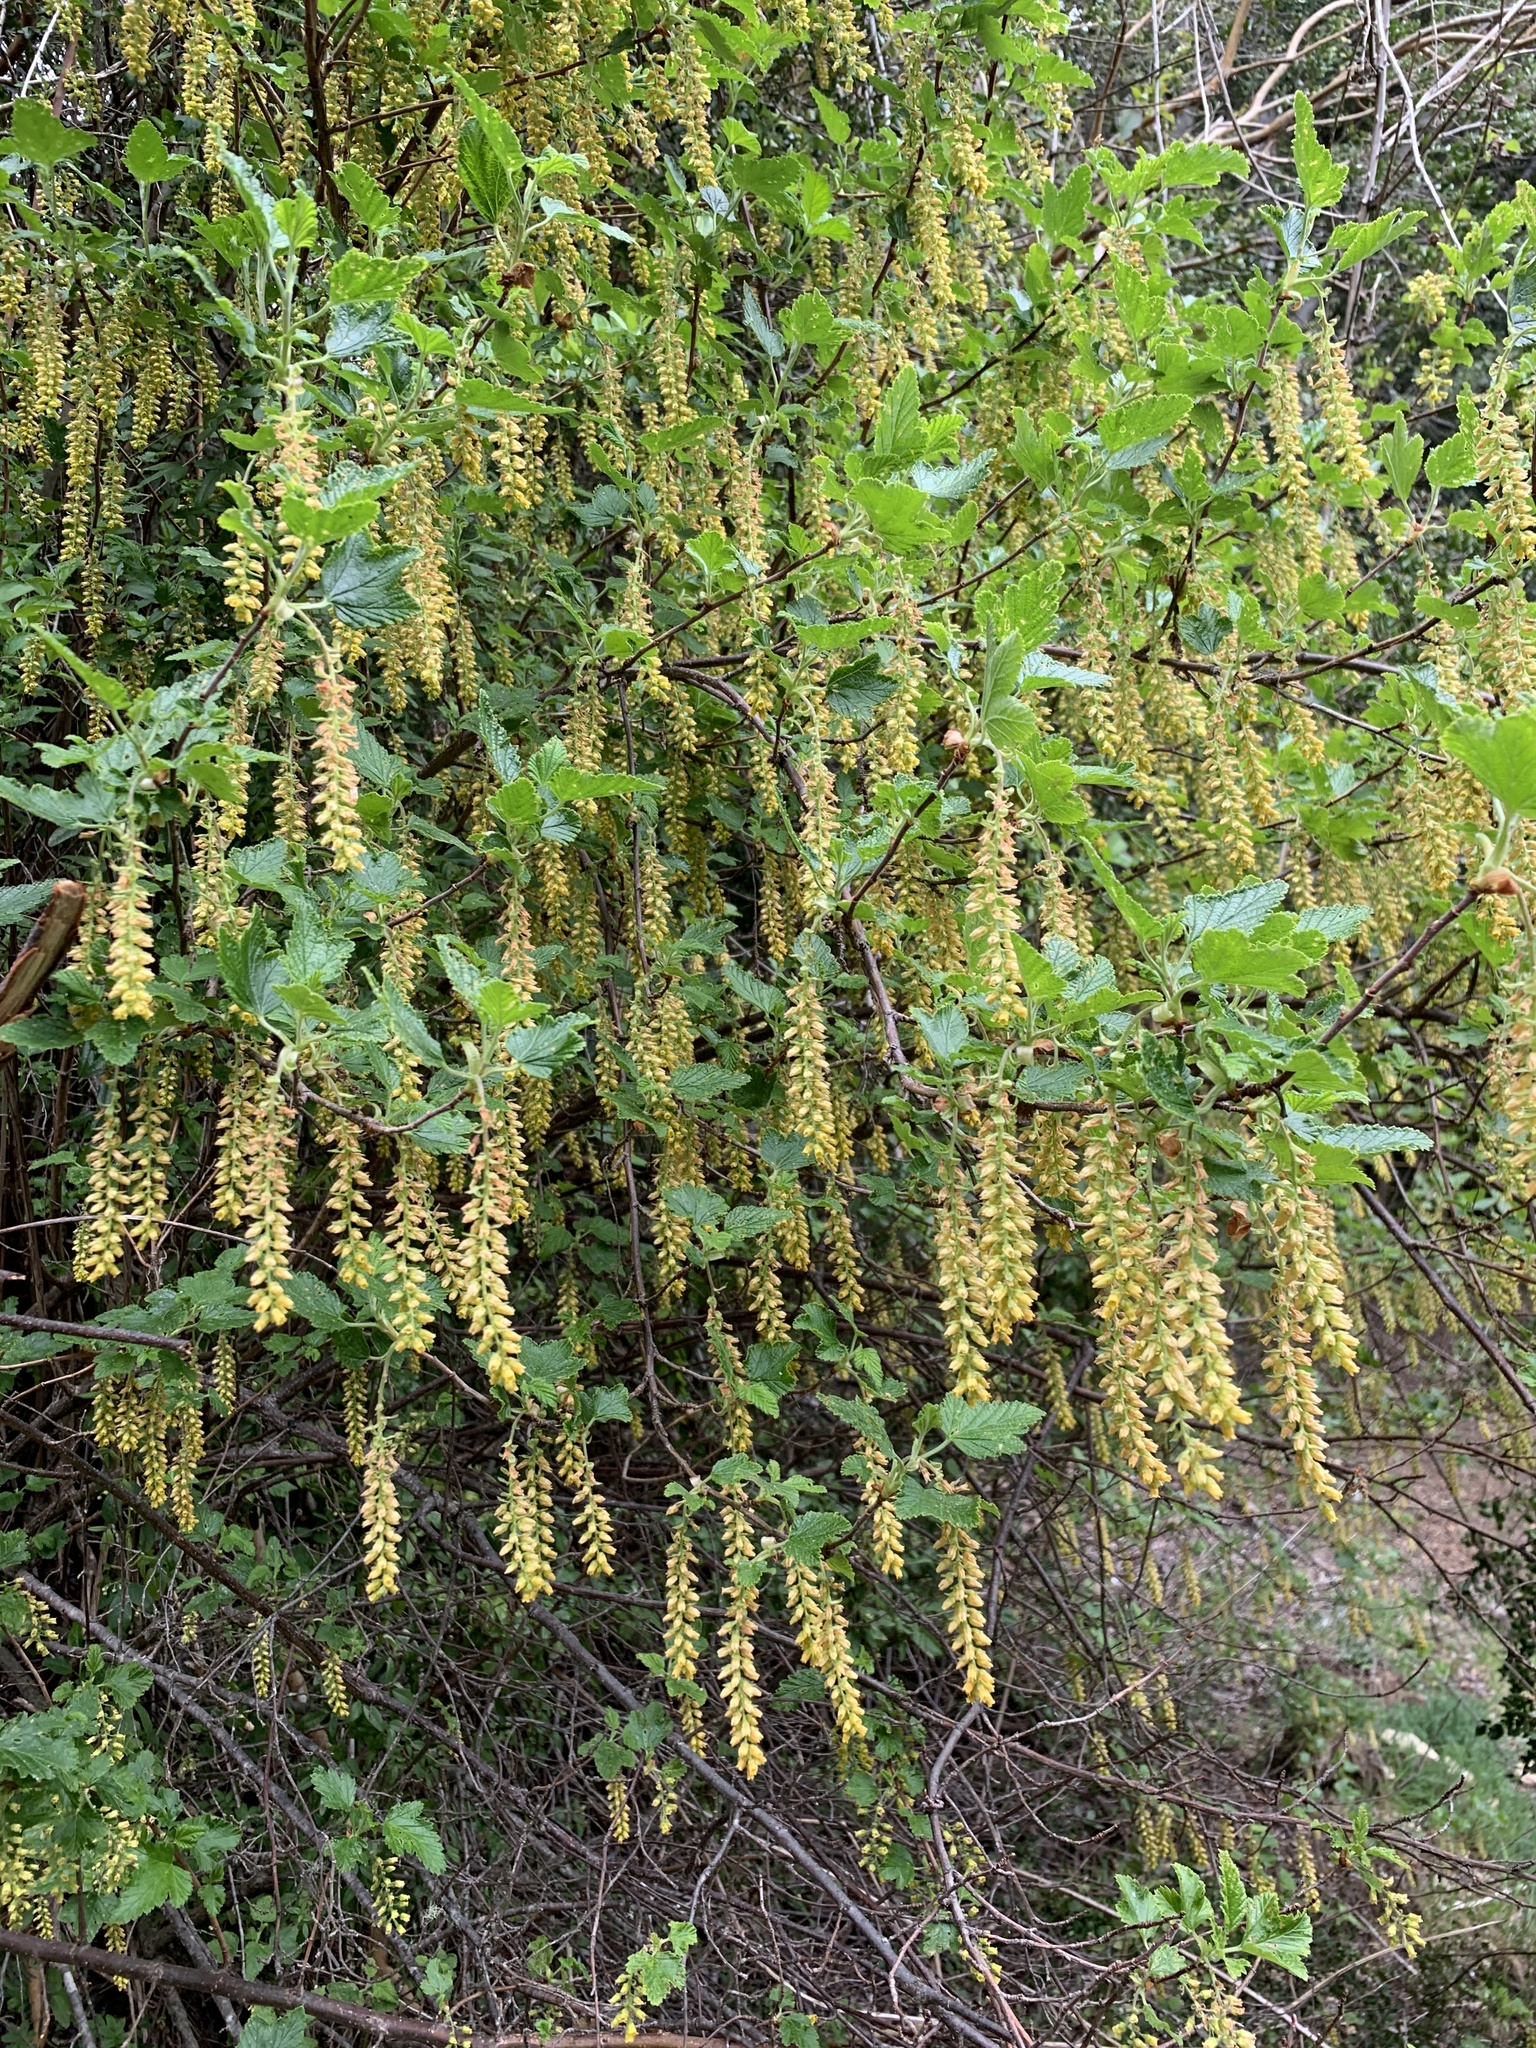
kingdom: Plantae
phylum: Tracheophyta
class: Magnoliopsida
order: Saxifragales
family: Grossulariaceae
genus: Ribes
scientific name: Ribes magellanicum
